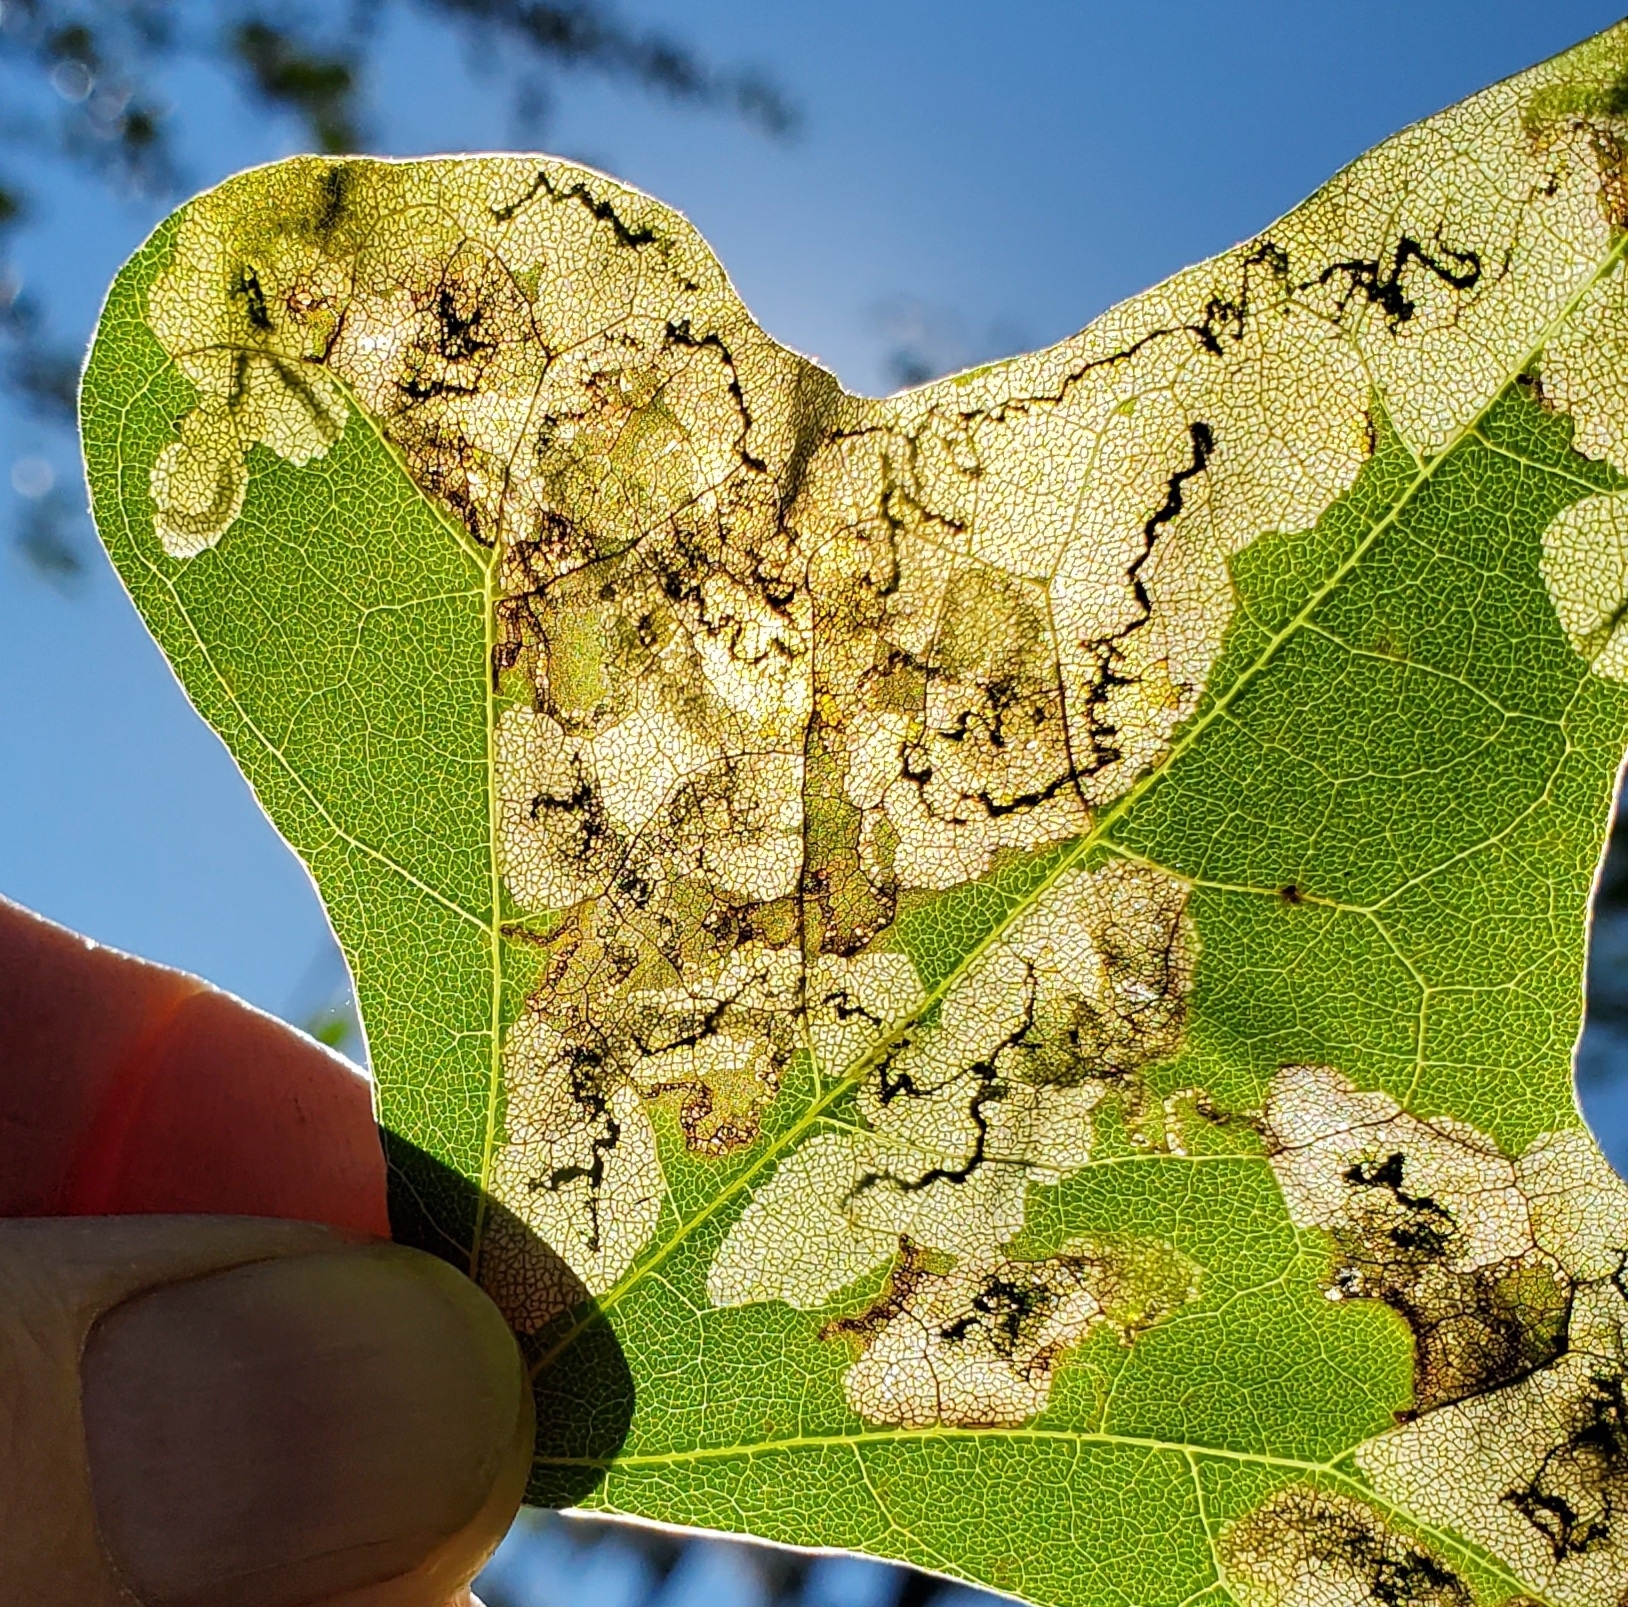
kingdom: Animalia
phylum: Arthropoda
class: Insecta
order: Lepidoptera
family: Lyonetiidae
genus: Leucoptera
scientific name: Leucoptera erythrinella
